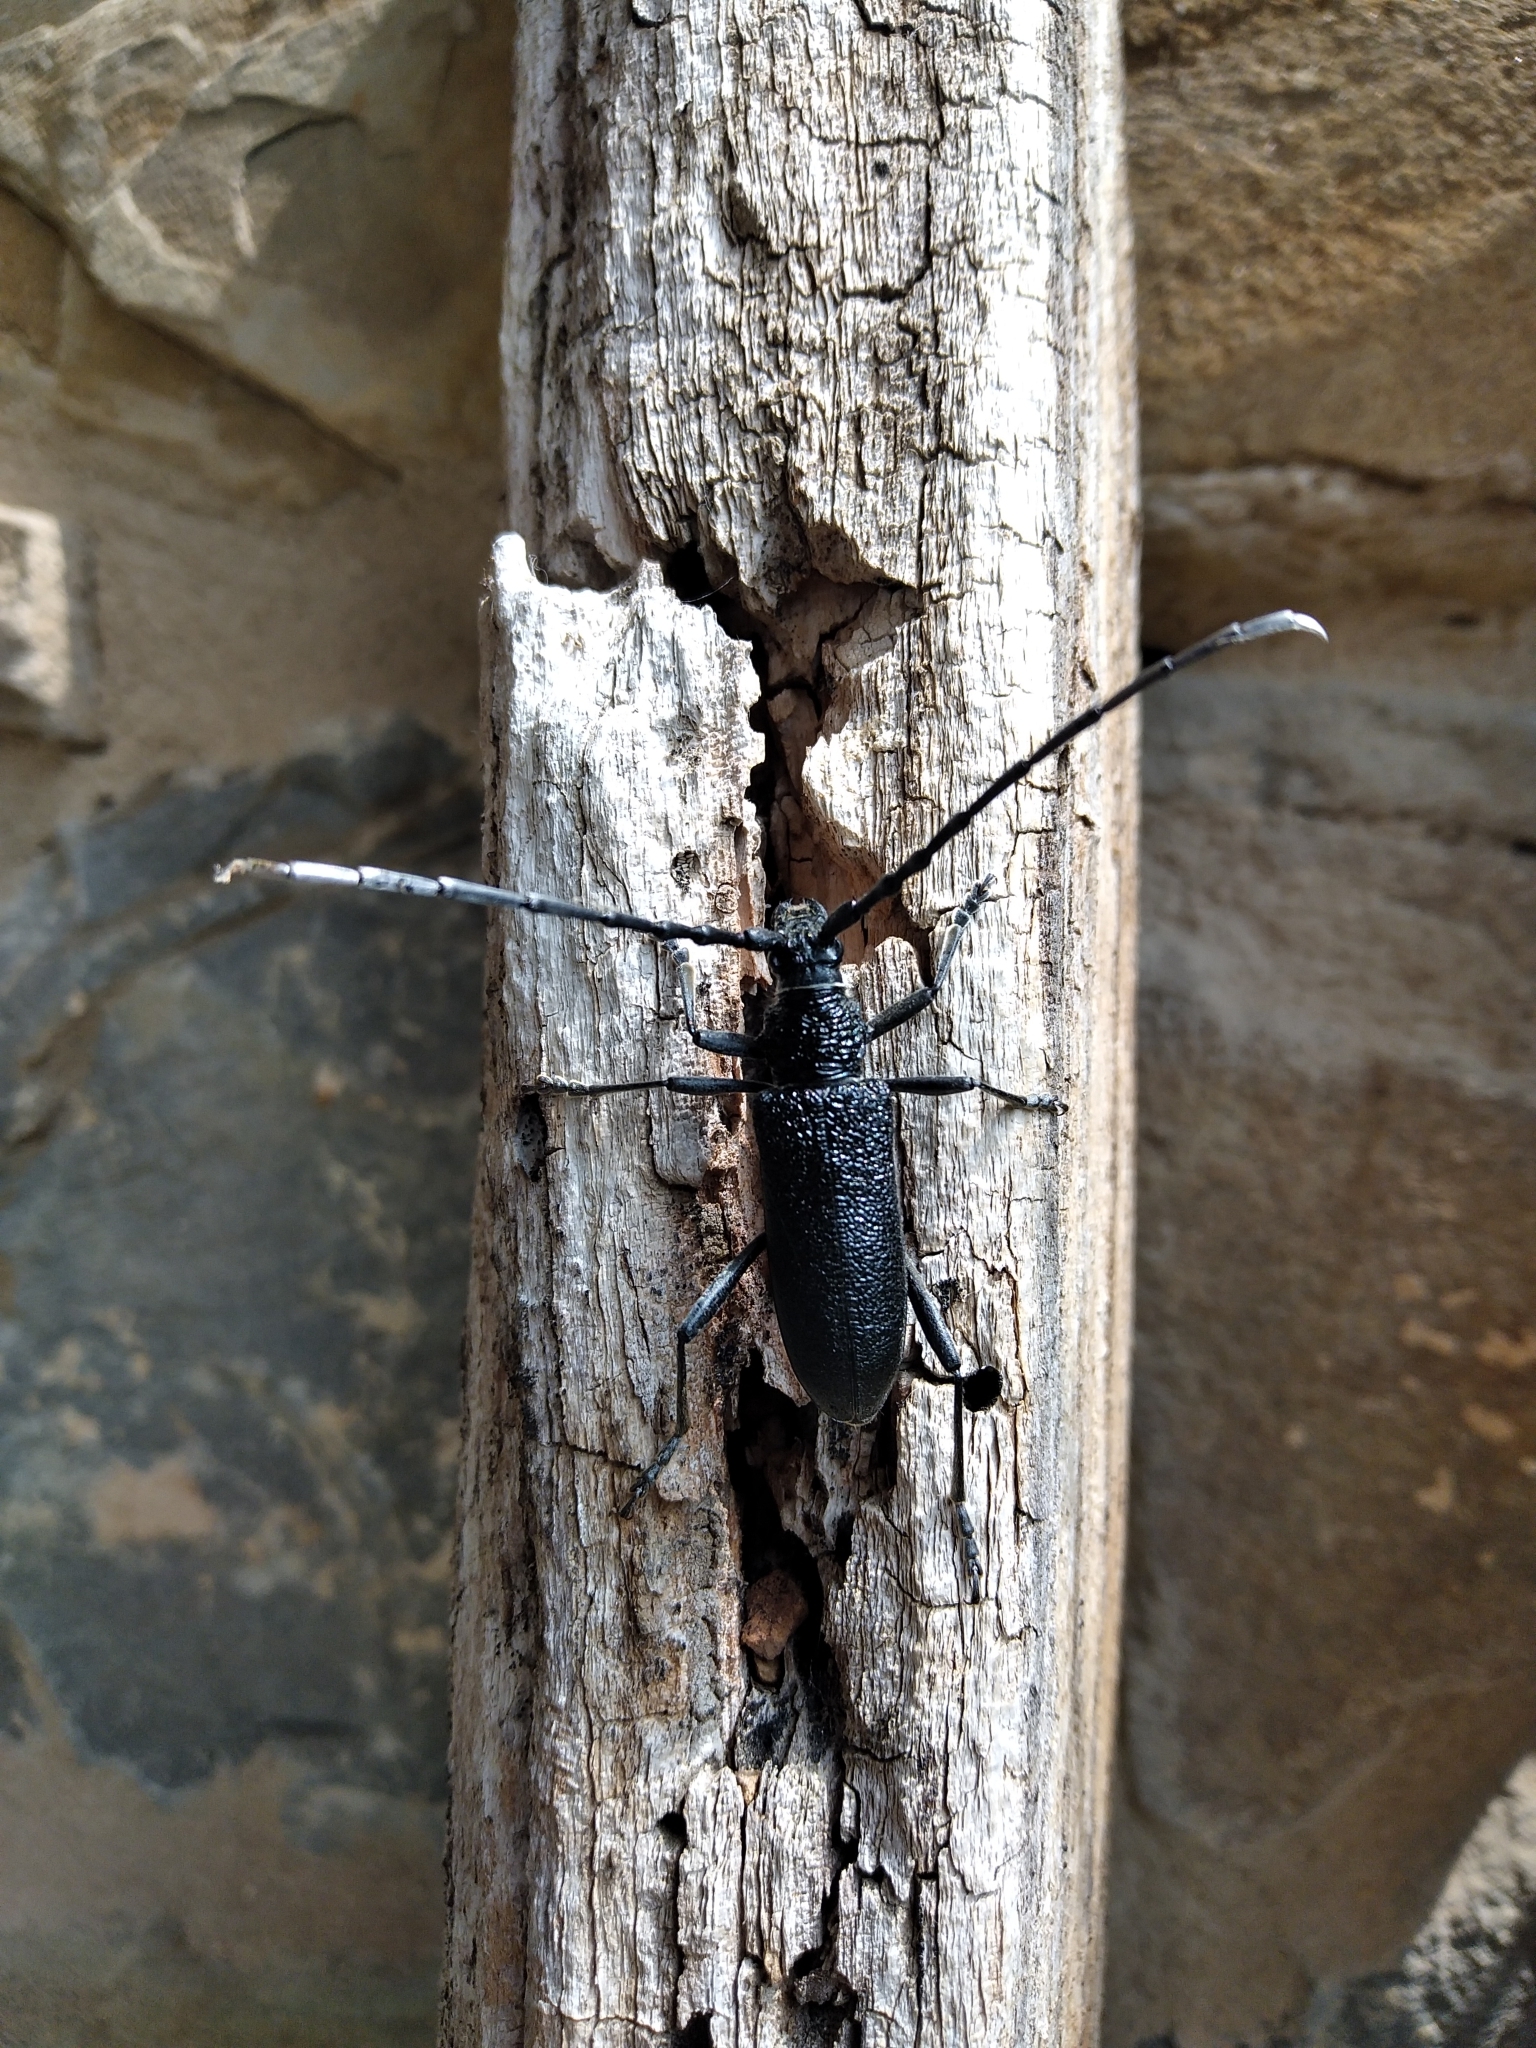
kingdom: Animalia
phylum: Arthropoda
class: Insecta
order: Coleoptera
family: Cerambycidae
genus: Cerambyx
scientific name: Cerambyx scopolii
